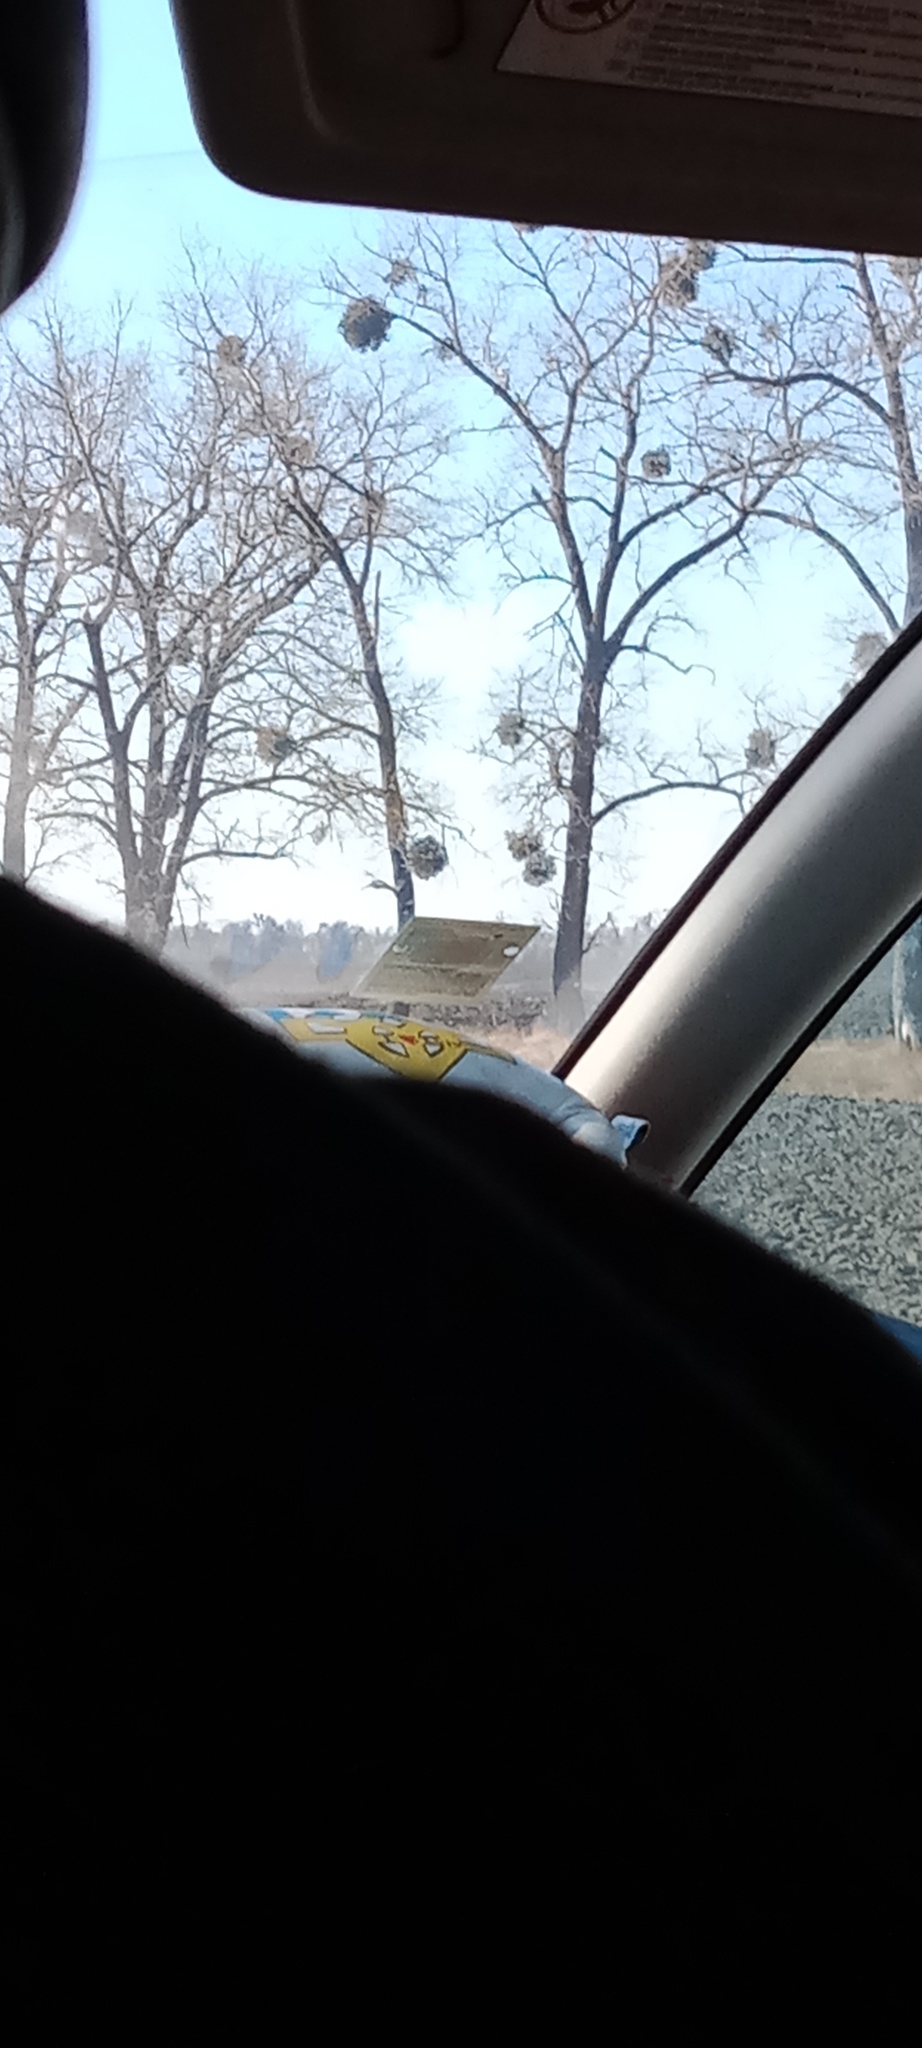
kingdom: Plantae
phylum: Tracheophyta
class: Magnoliopsida
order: Santalales
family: Viscaceae
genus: Viscum
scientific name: Viscum album
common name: Mistletoe
